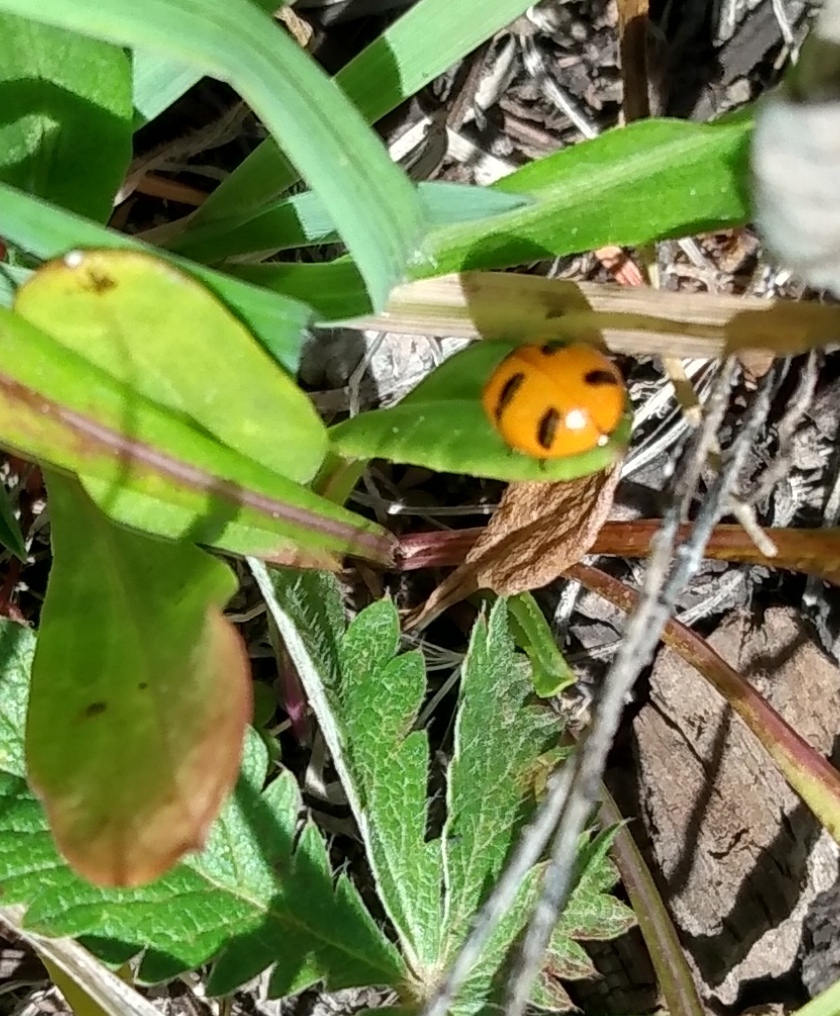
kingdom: Animalia
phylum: Arthropoda
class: Insecta
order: Coleoptera
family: Coccinellidae
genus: Coccinella
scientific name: Coccinella monticola
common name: Mountain lady beetle
